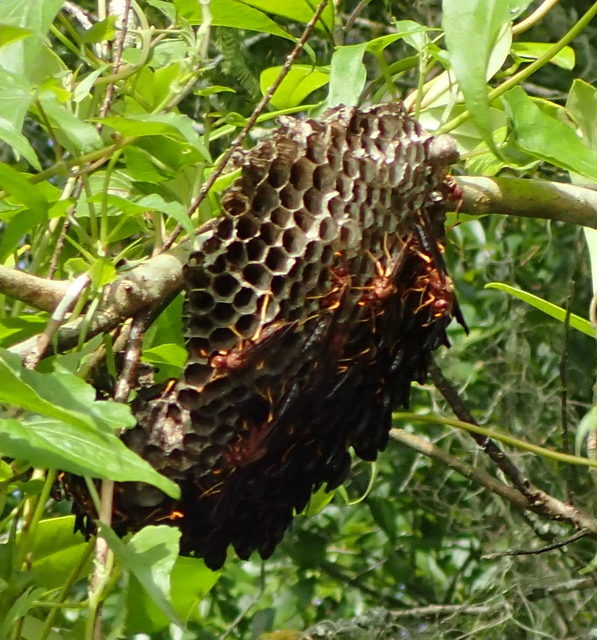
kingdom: Animalia
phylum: Arthropoda
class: Insecta
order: Hymenoptera
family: Eumenidae
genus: Polistes
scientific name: Polistes annularis
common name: Ringed paper wasp
